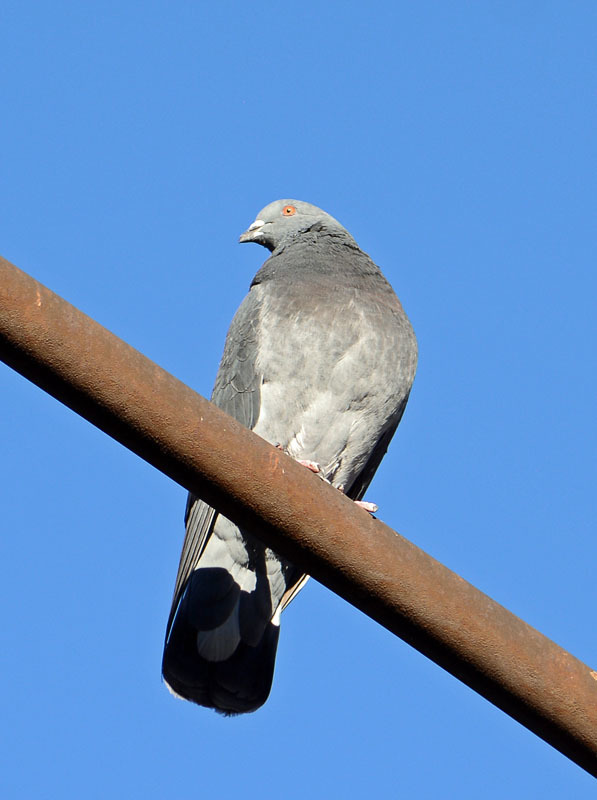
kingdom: Animalia
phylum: Chordata
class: Aves
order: Columbiformes
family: Columbidae
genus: Columba
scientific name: Columba livia
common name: Rock pigeon
